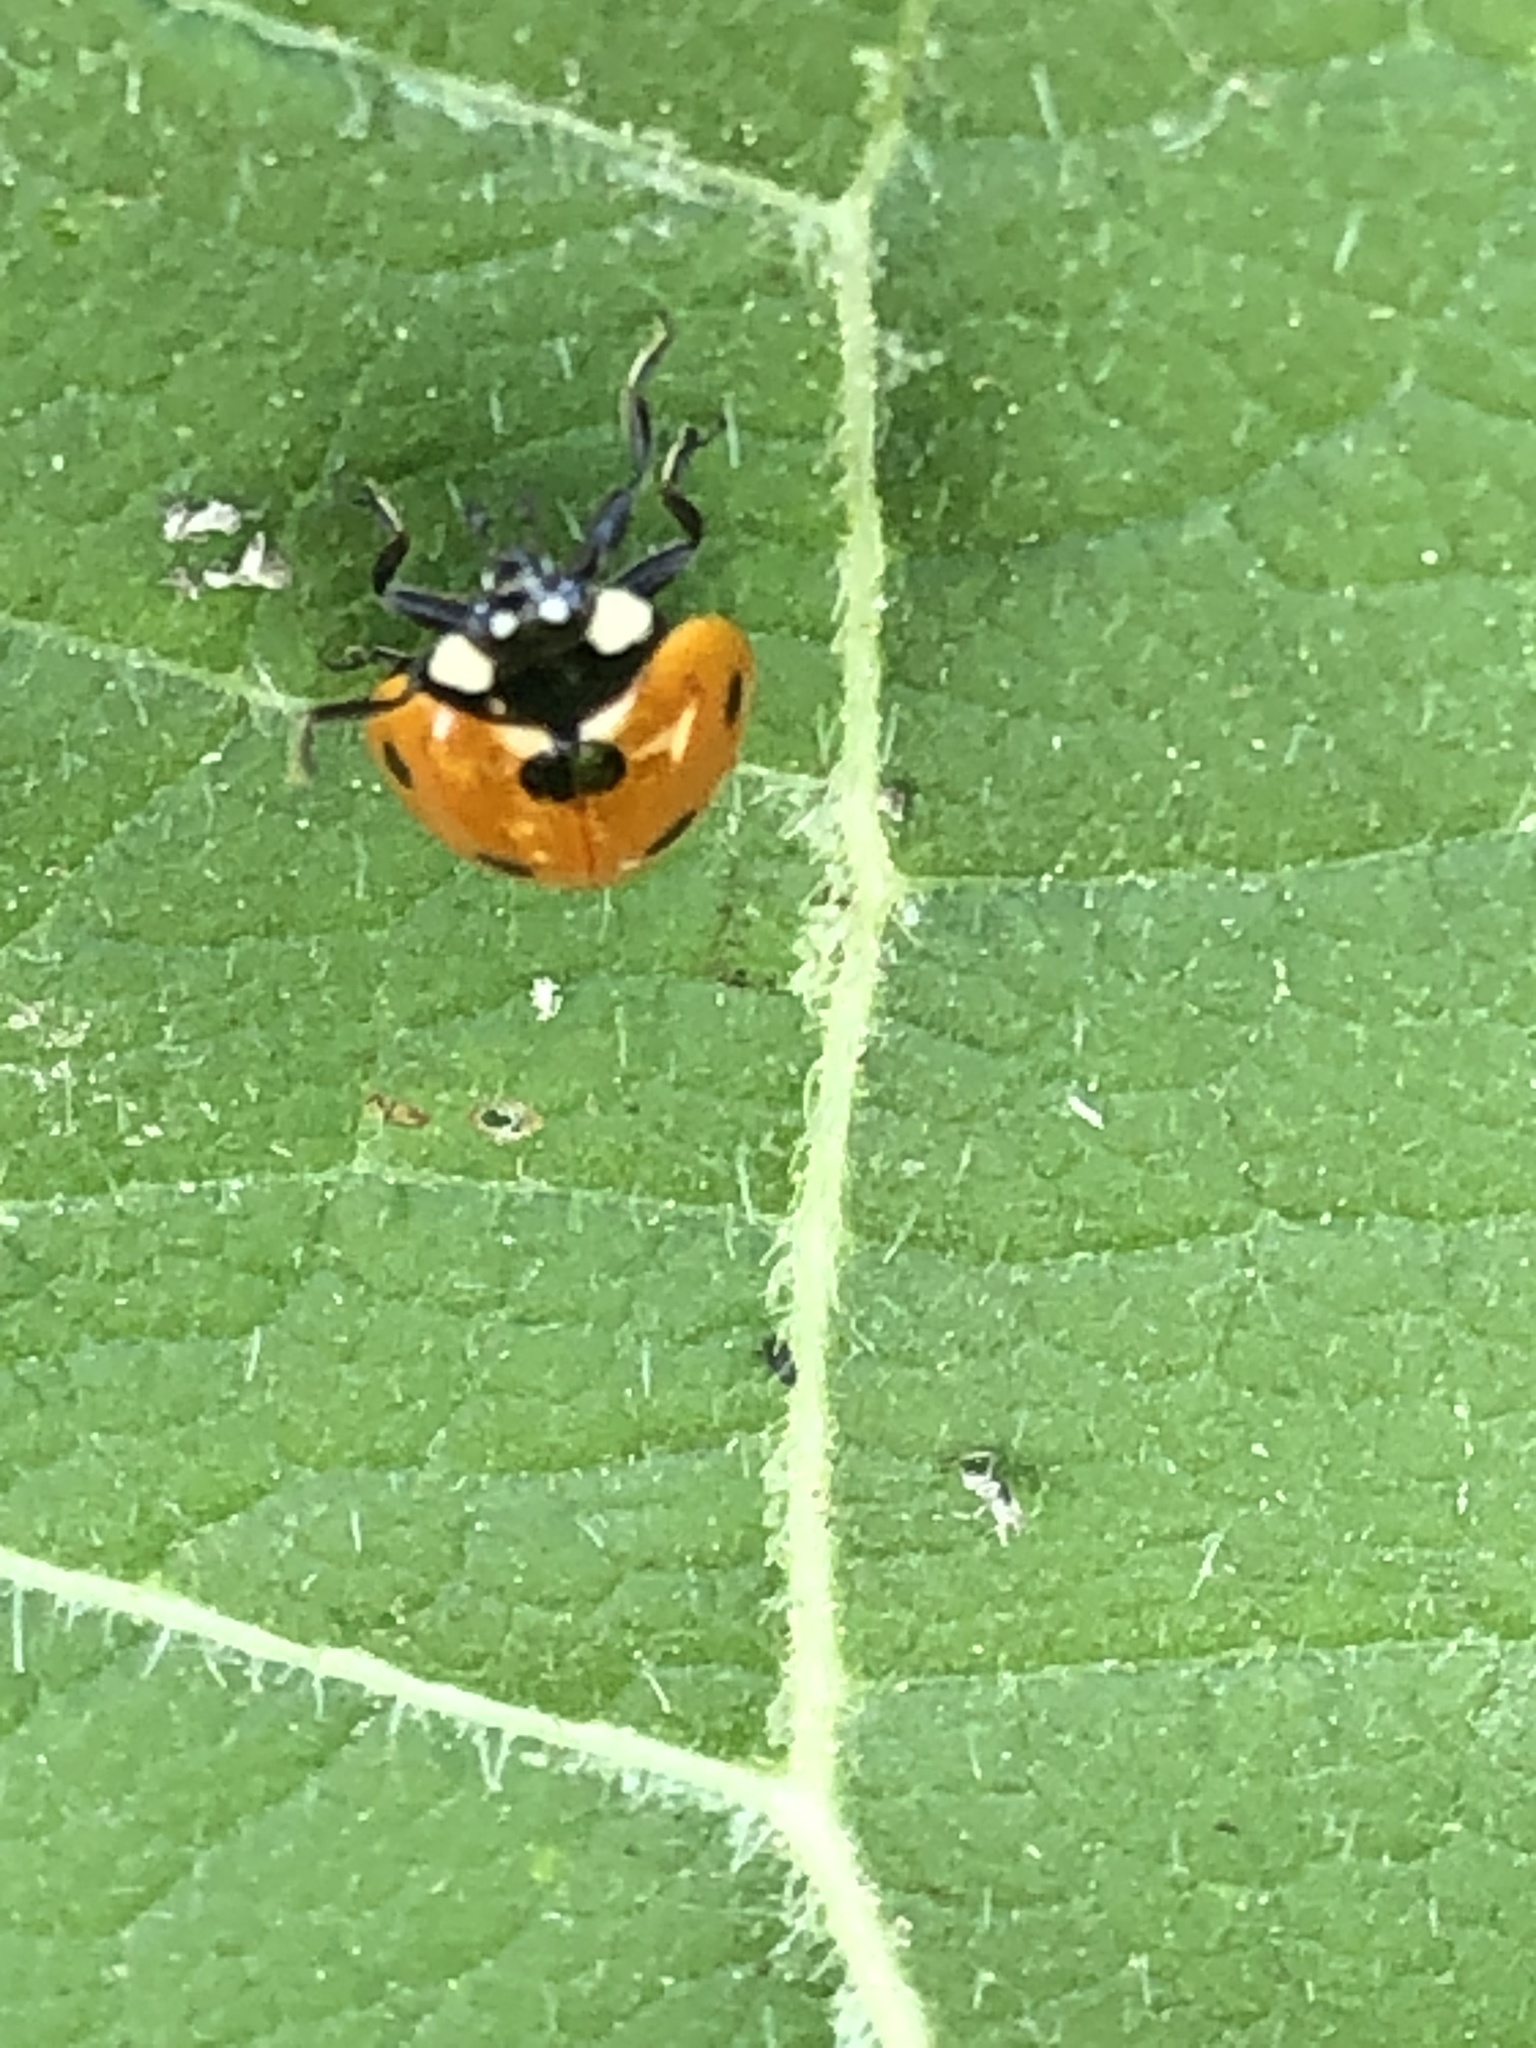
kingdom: Animalia
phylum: Arthropoda
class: Insecta
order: Coleoptera
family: Coccinellidae
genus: Coccinella
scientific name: Coccinella septempunctata
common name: Sevenspotted lady beetle
